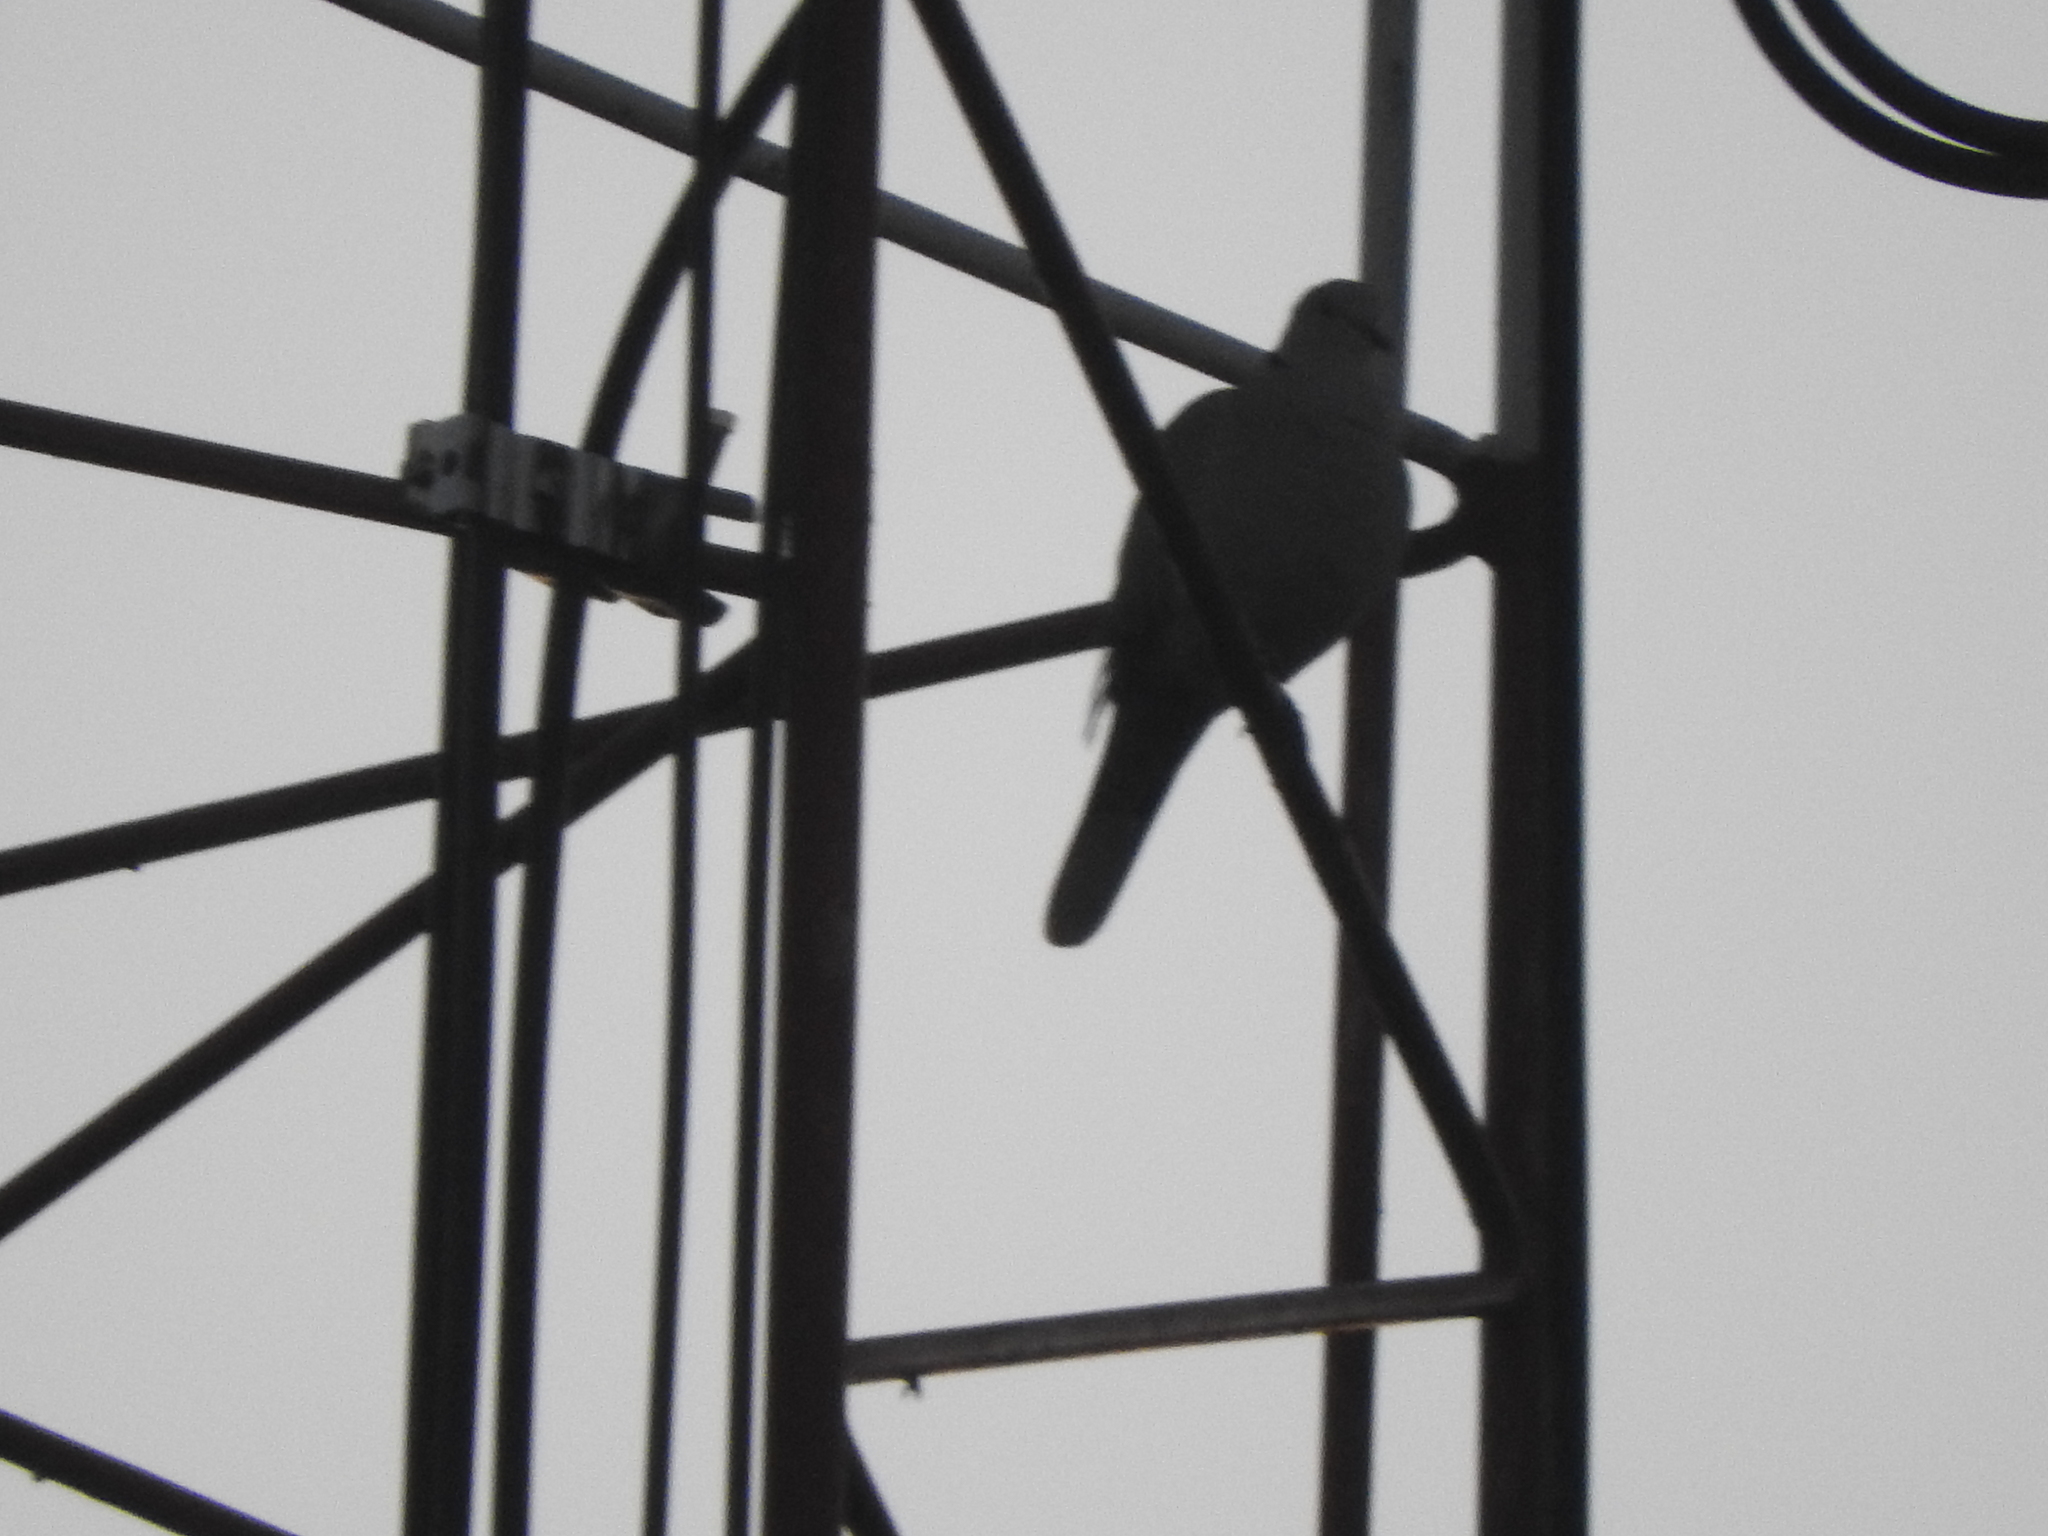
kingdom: Animalia
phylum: Chordata
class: Aves
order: Columbiformes
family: Columbidae
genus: Streptopelia
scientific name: Streptopelia decaocto
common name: Eurasian collared dove
